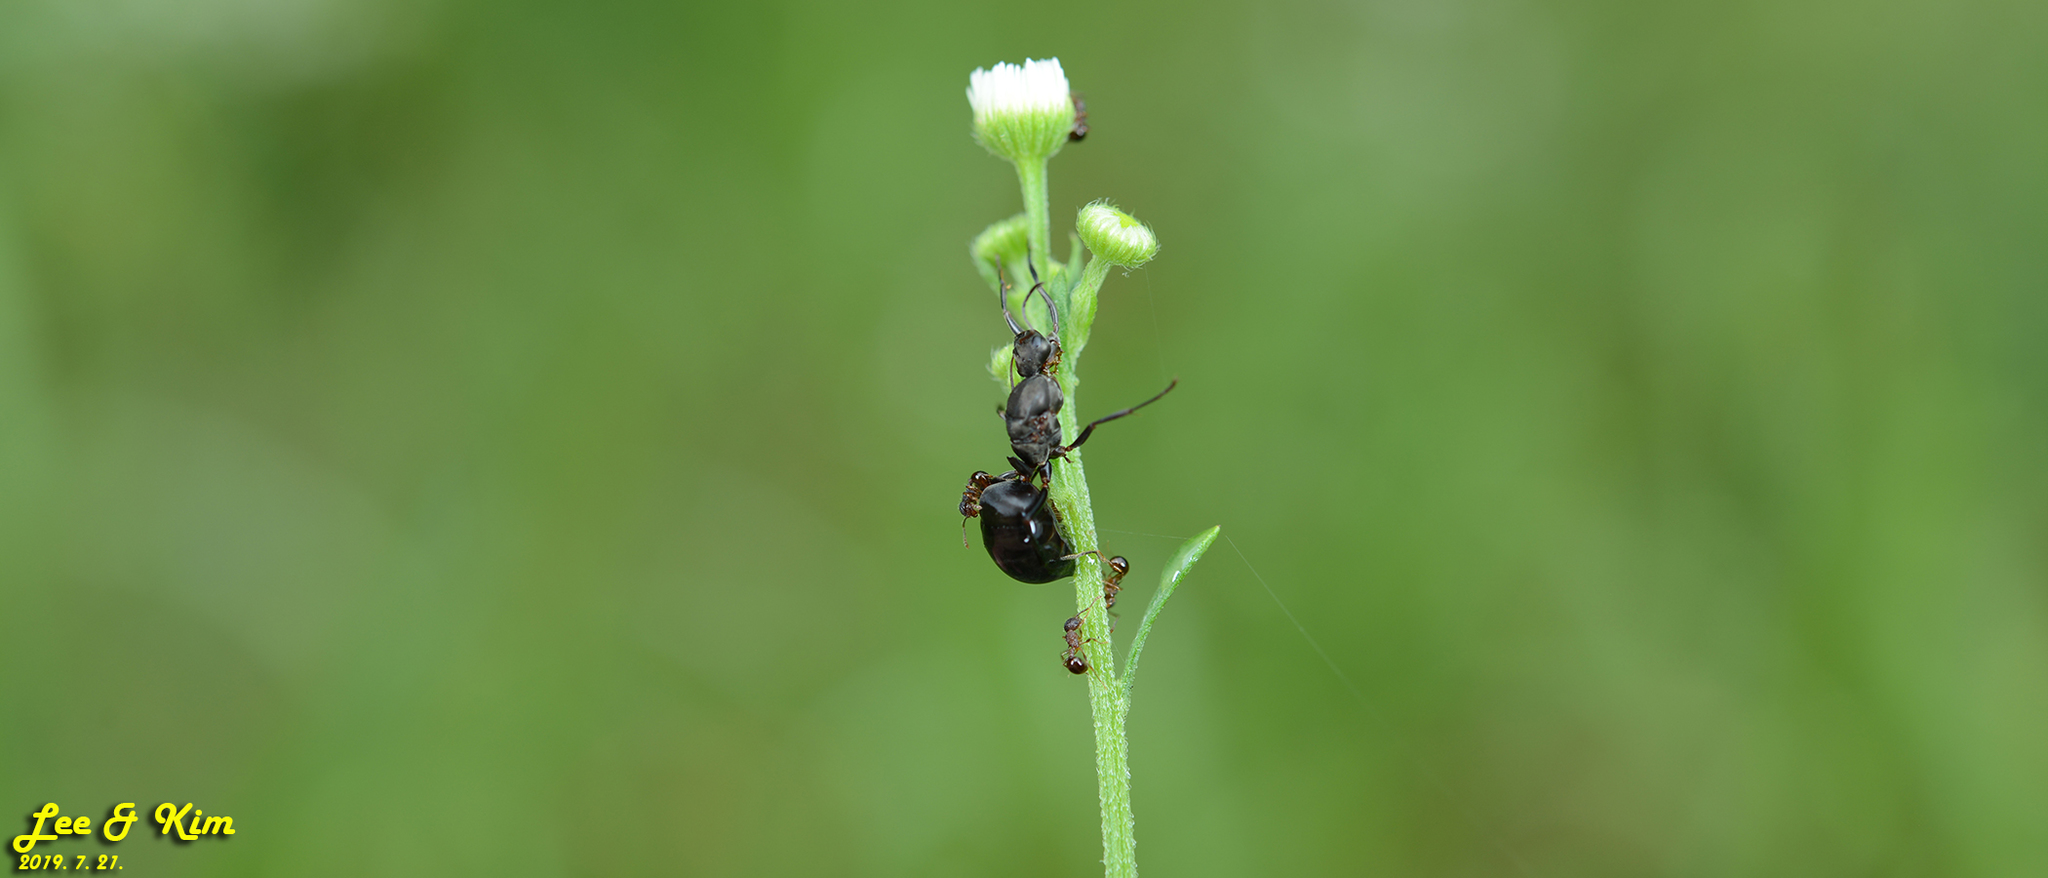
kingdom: Animalia
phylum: Arthropoda
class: Insecta
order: Hymenoptera
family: Formicidae
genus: Pristomyrmex
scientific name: Pristomyrmex punctatus
